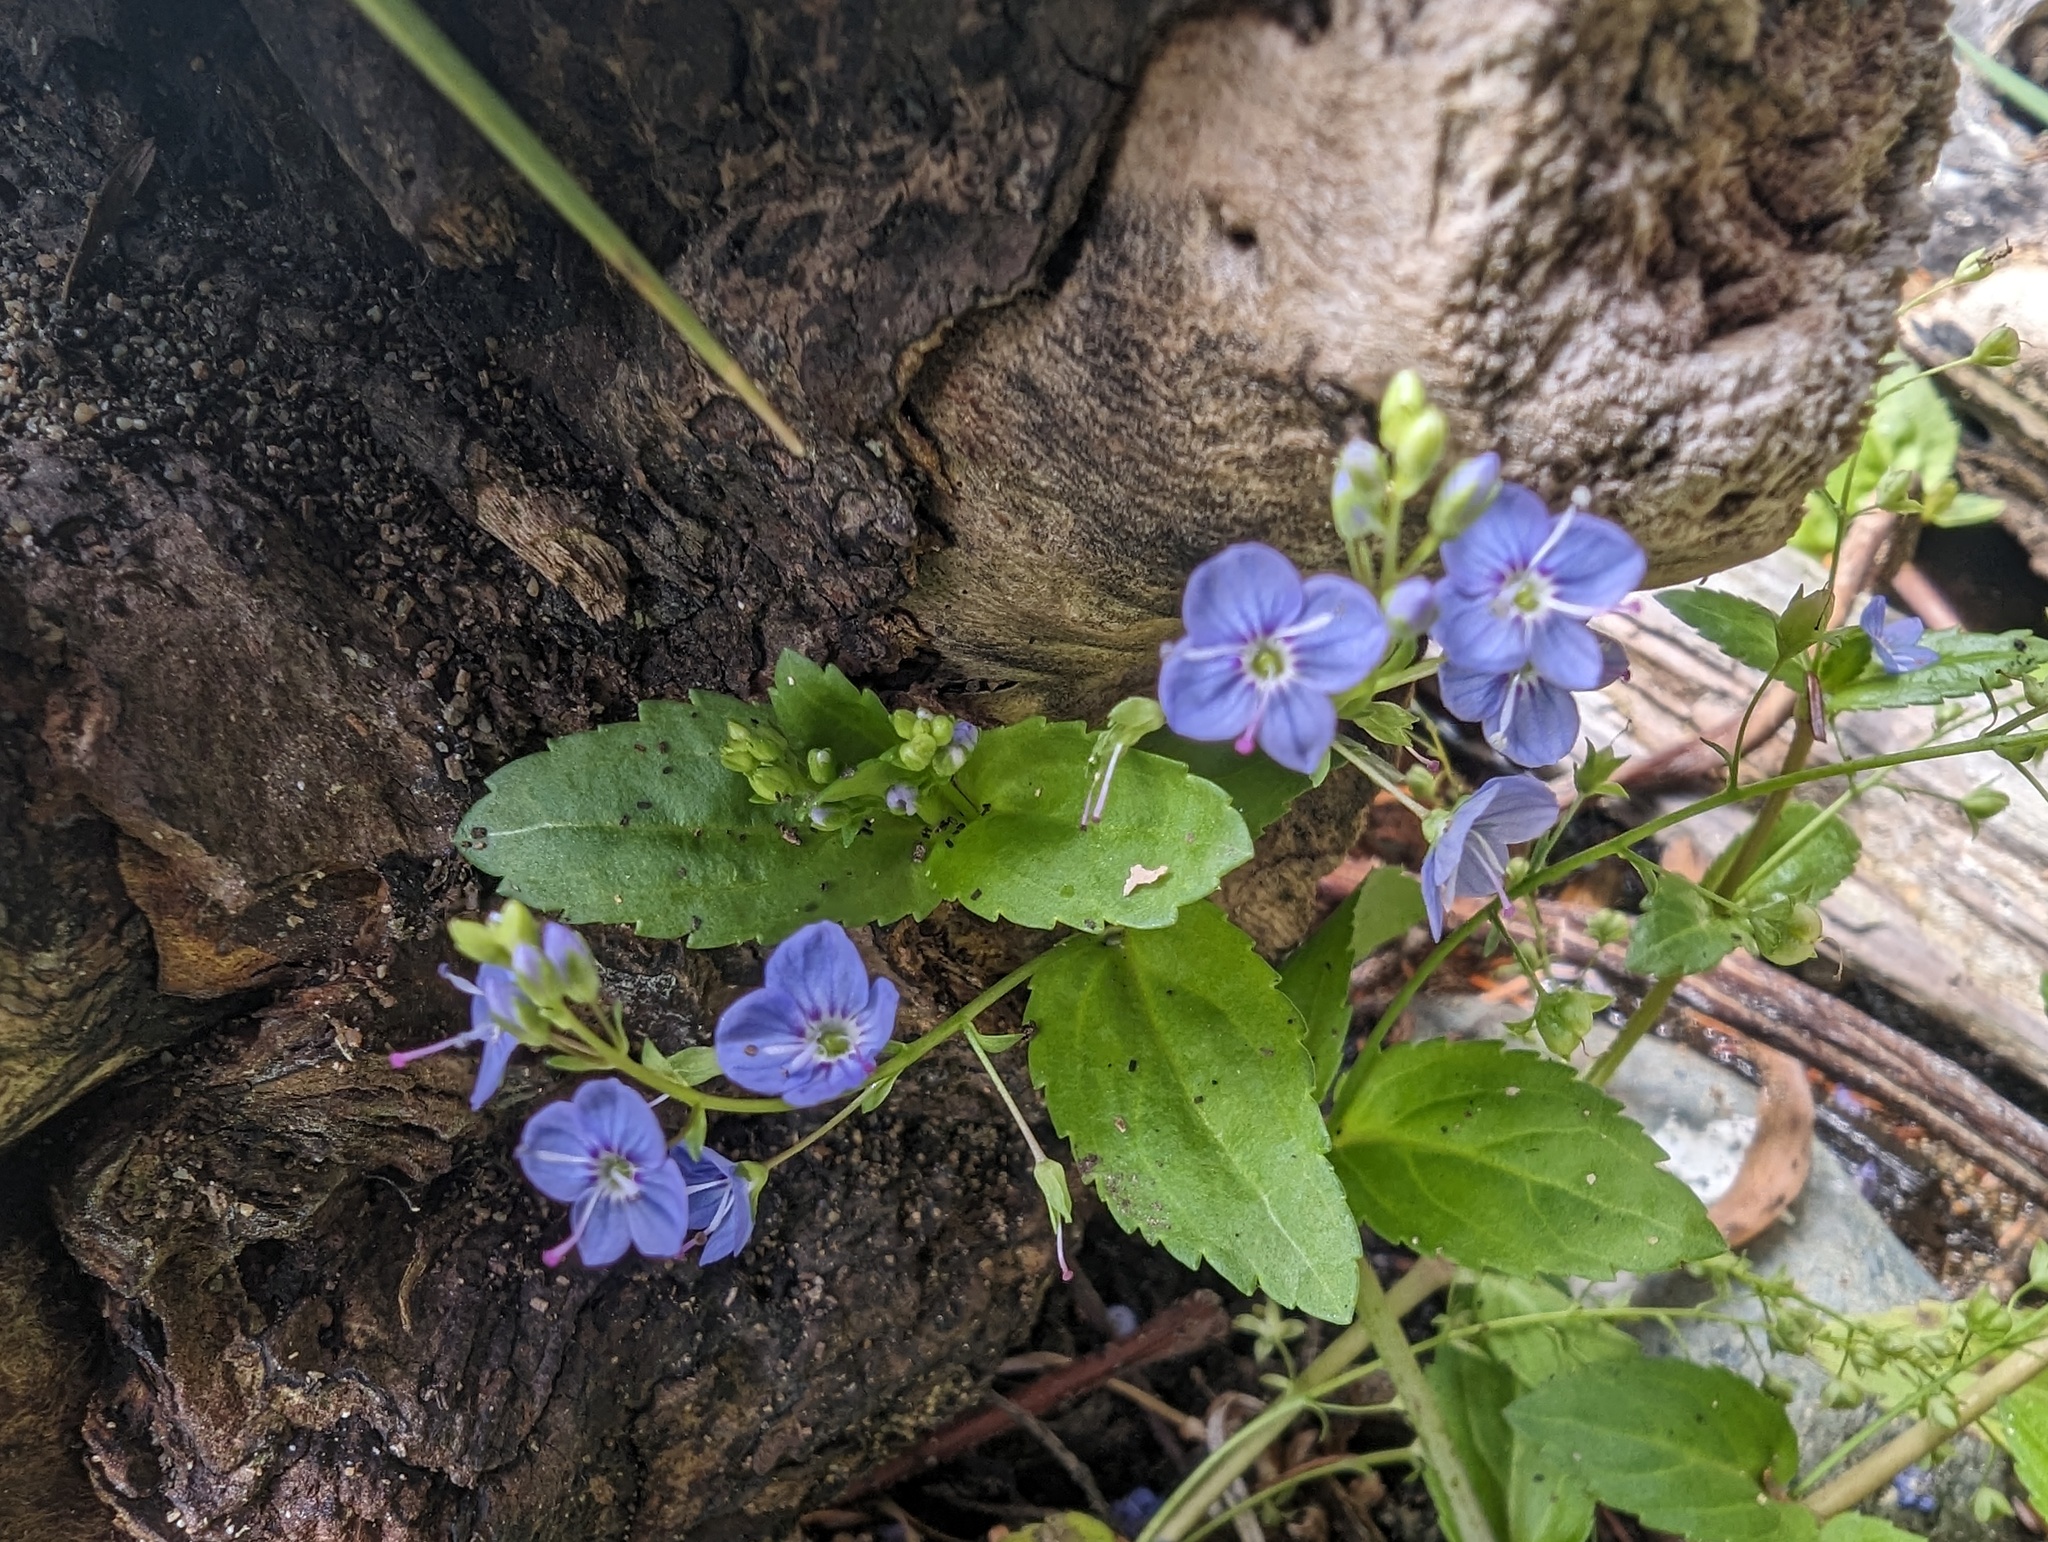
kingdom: Plantae
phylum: Tracheophyta
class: Magnoliopsida
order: Lamiales
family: Plantaginaceae
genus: Veronica
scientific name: Veronica americana
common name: American brooklime
